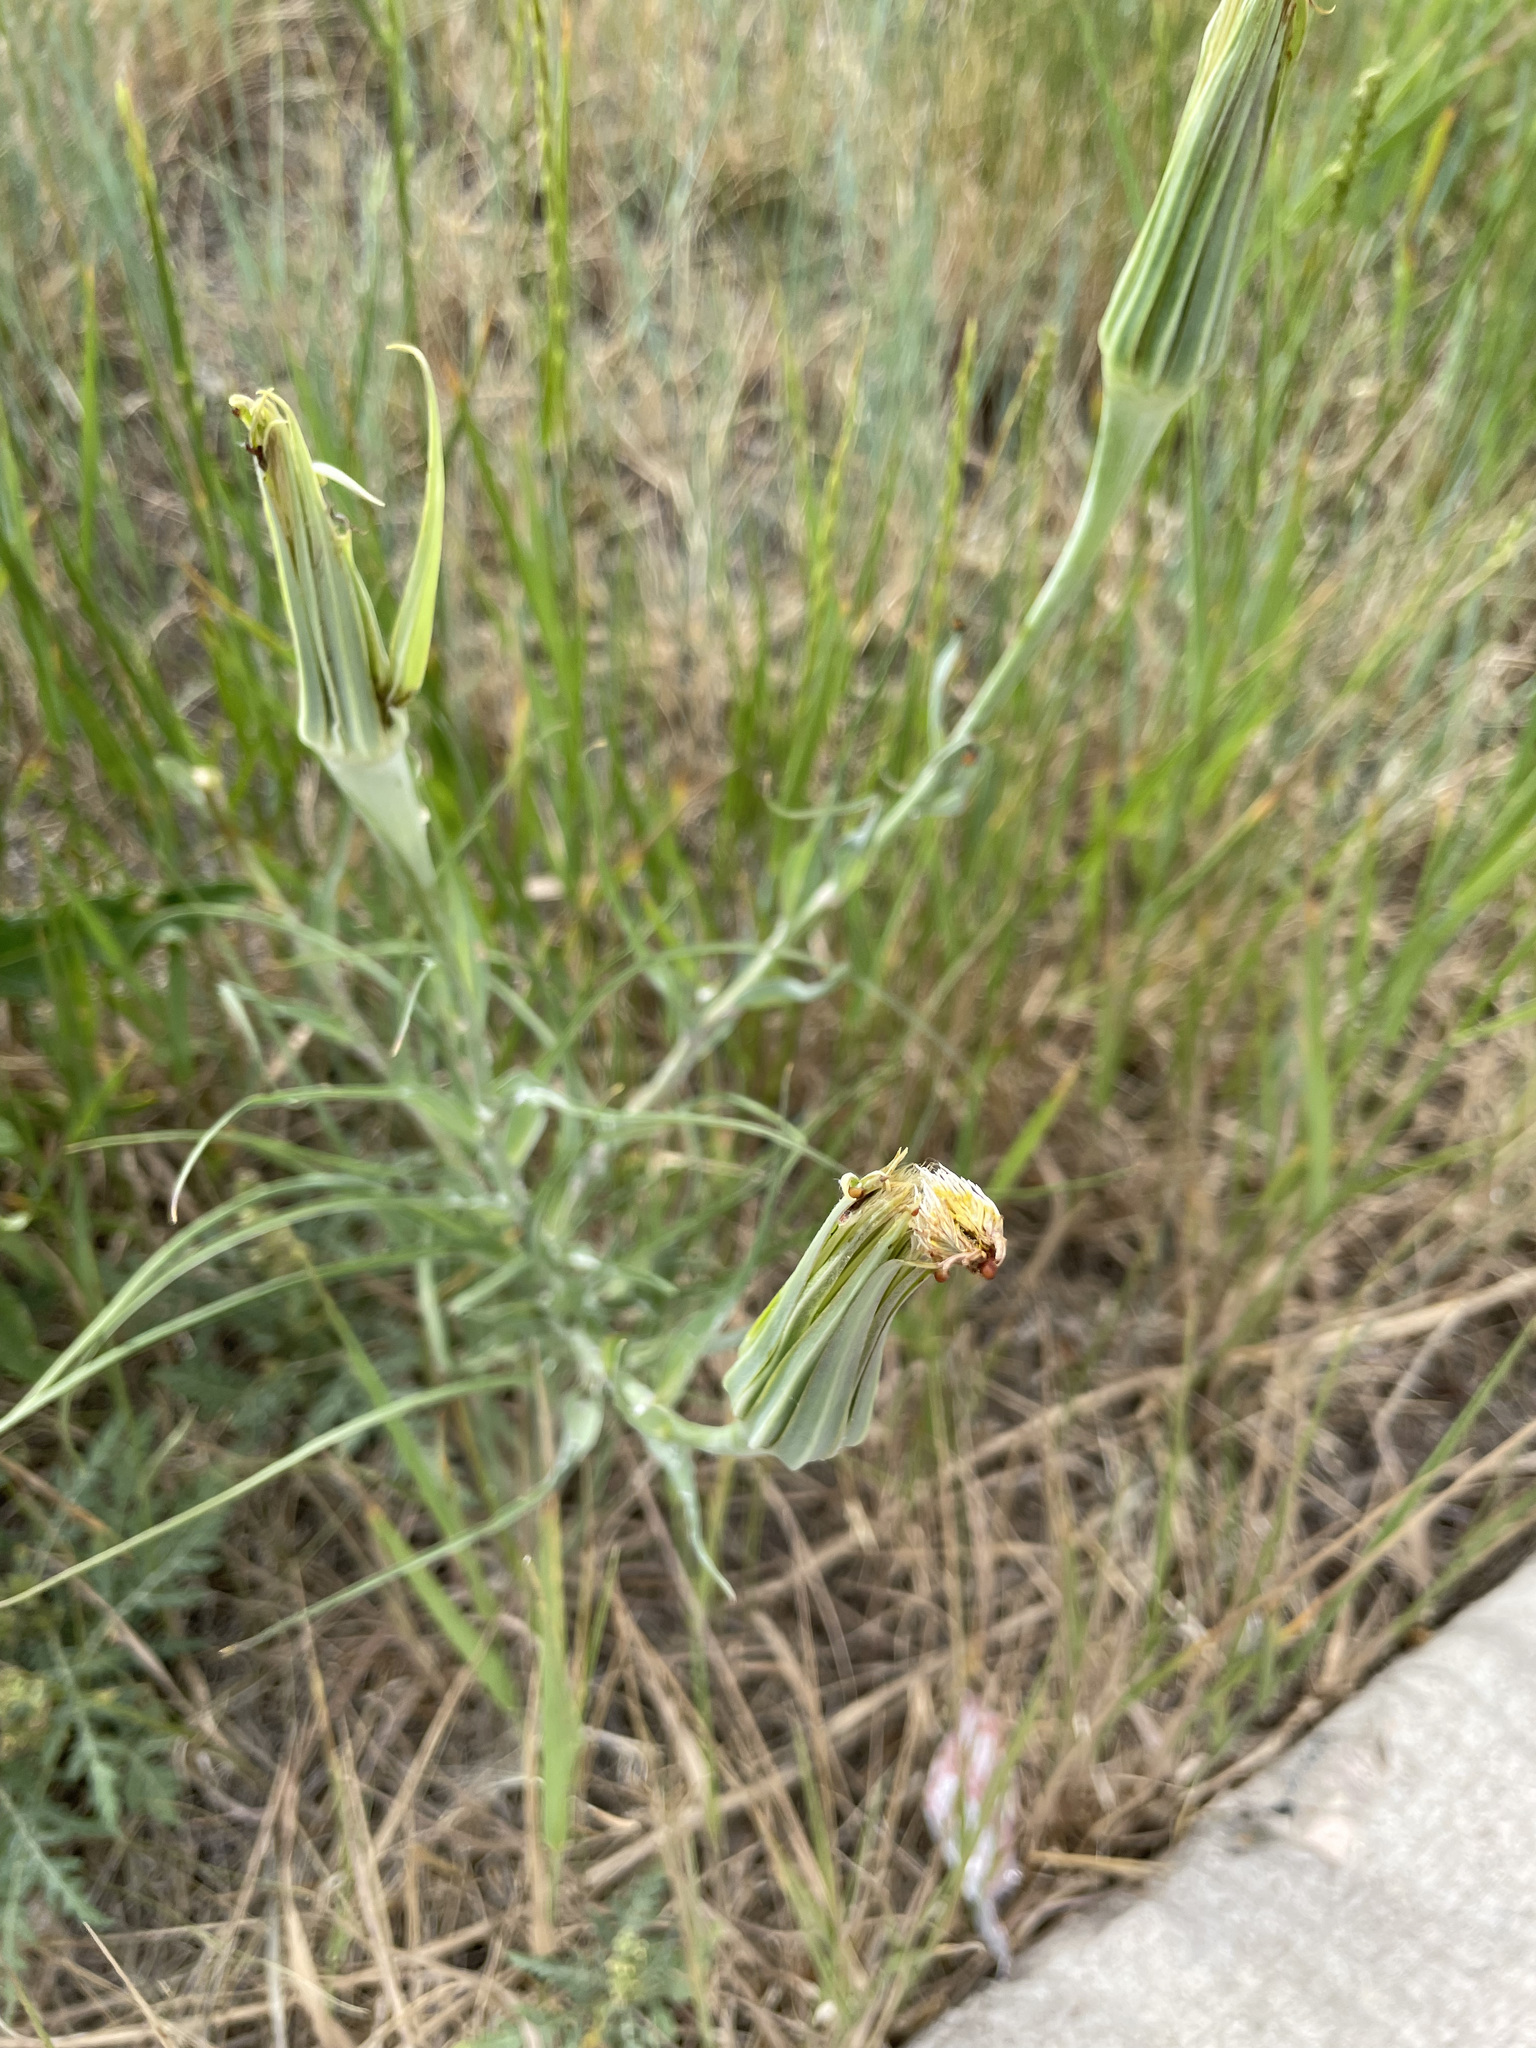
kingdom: Plantae
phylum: Tracheophyta
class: Magnoliopsida
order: Asterales
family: Asteraceae
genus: Tragopogon
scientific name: Tragopogon dubius
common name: Yellow salsify
